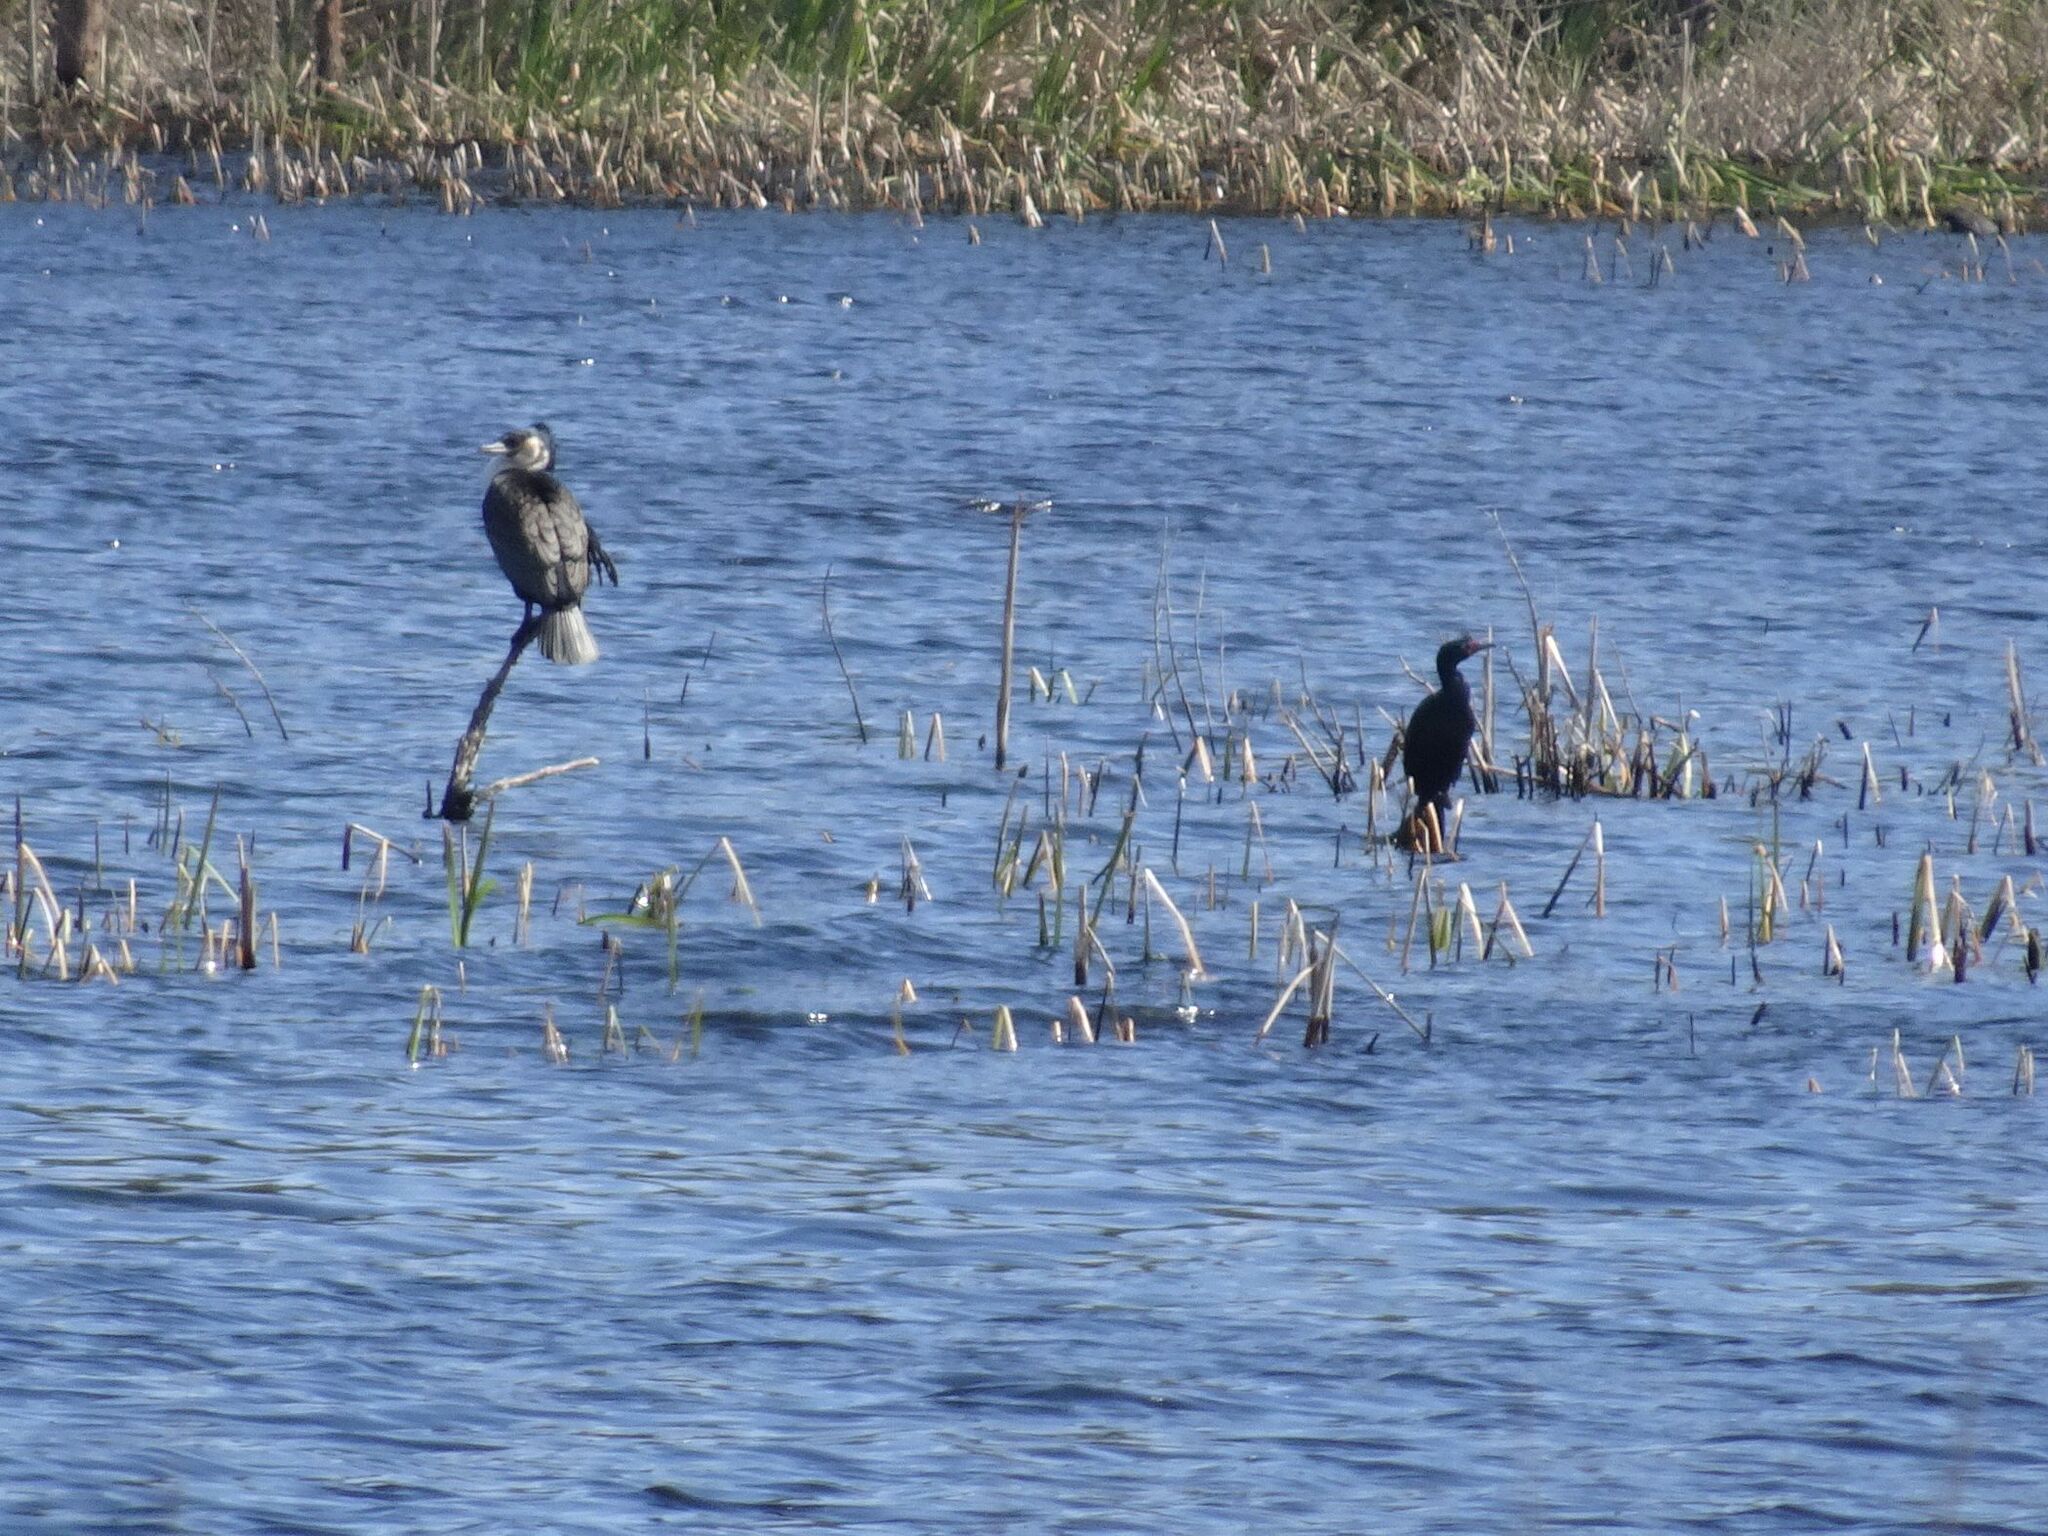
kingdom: Animalia
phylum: Chordata
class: Aves
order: Suliformes
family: Phalacrocoracidae
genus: Microcarbo
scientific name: Microcarbo africanus
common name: Long-tailed cormorant
